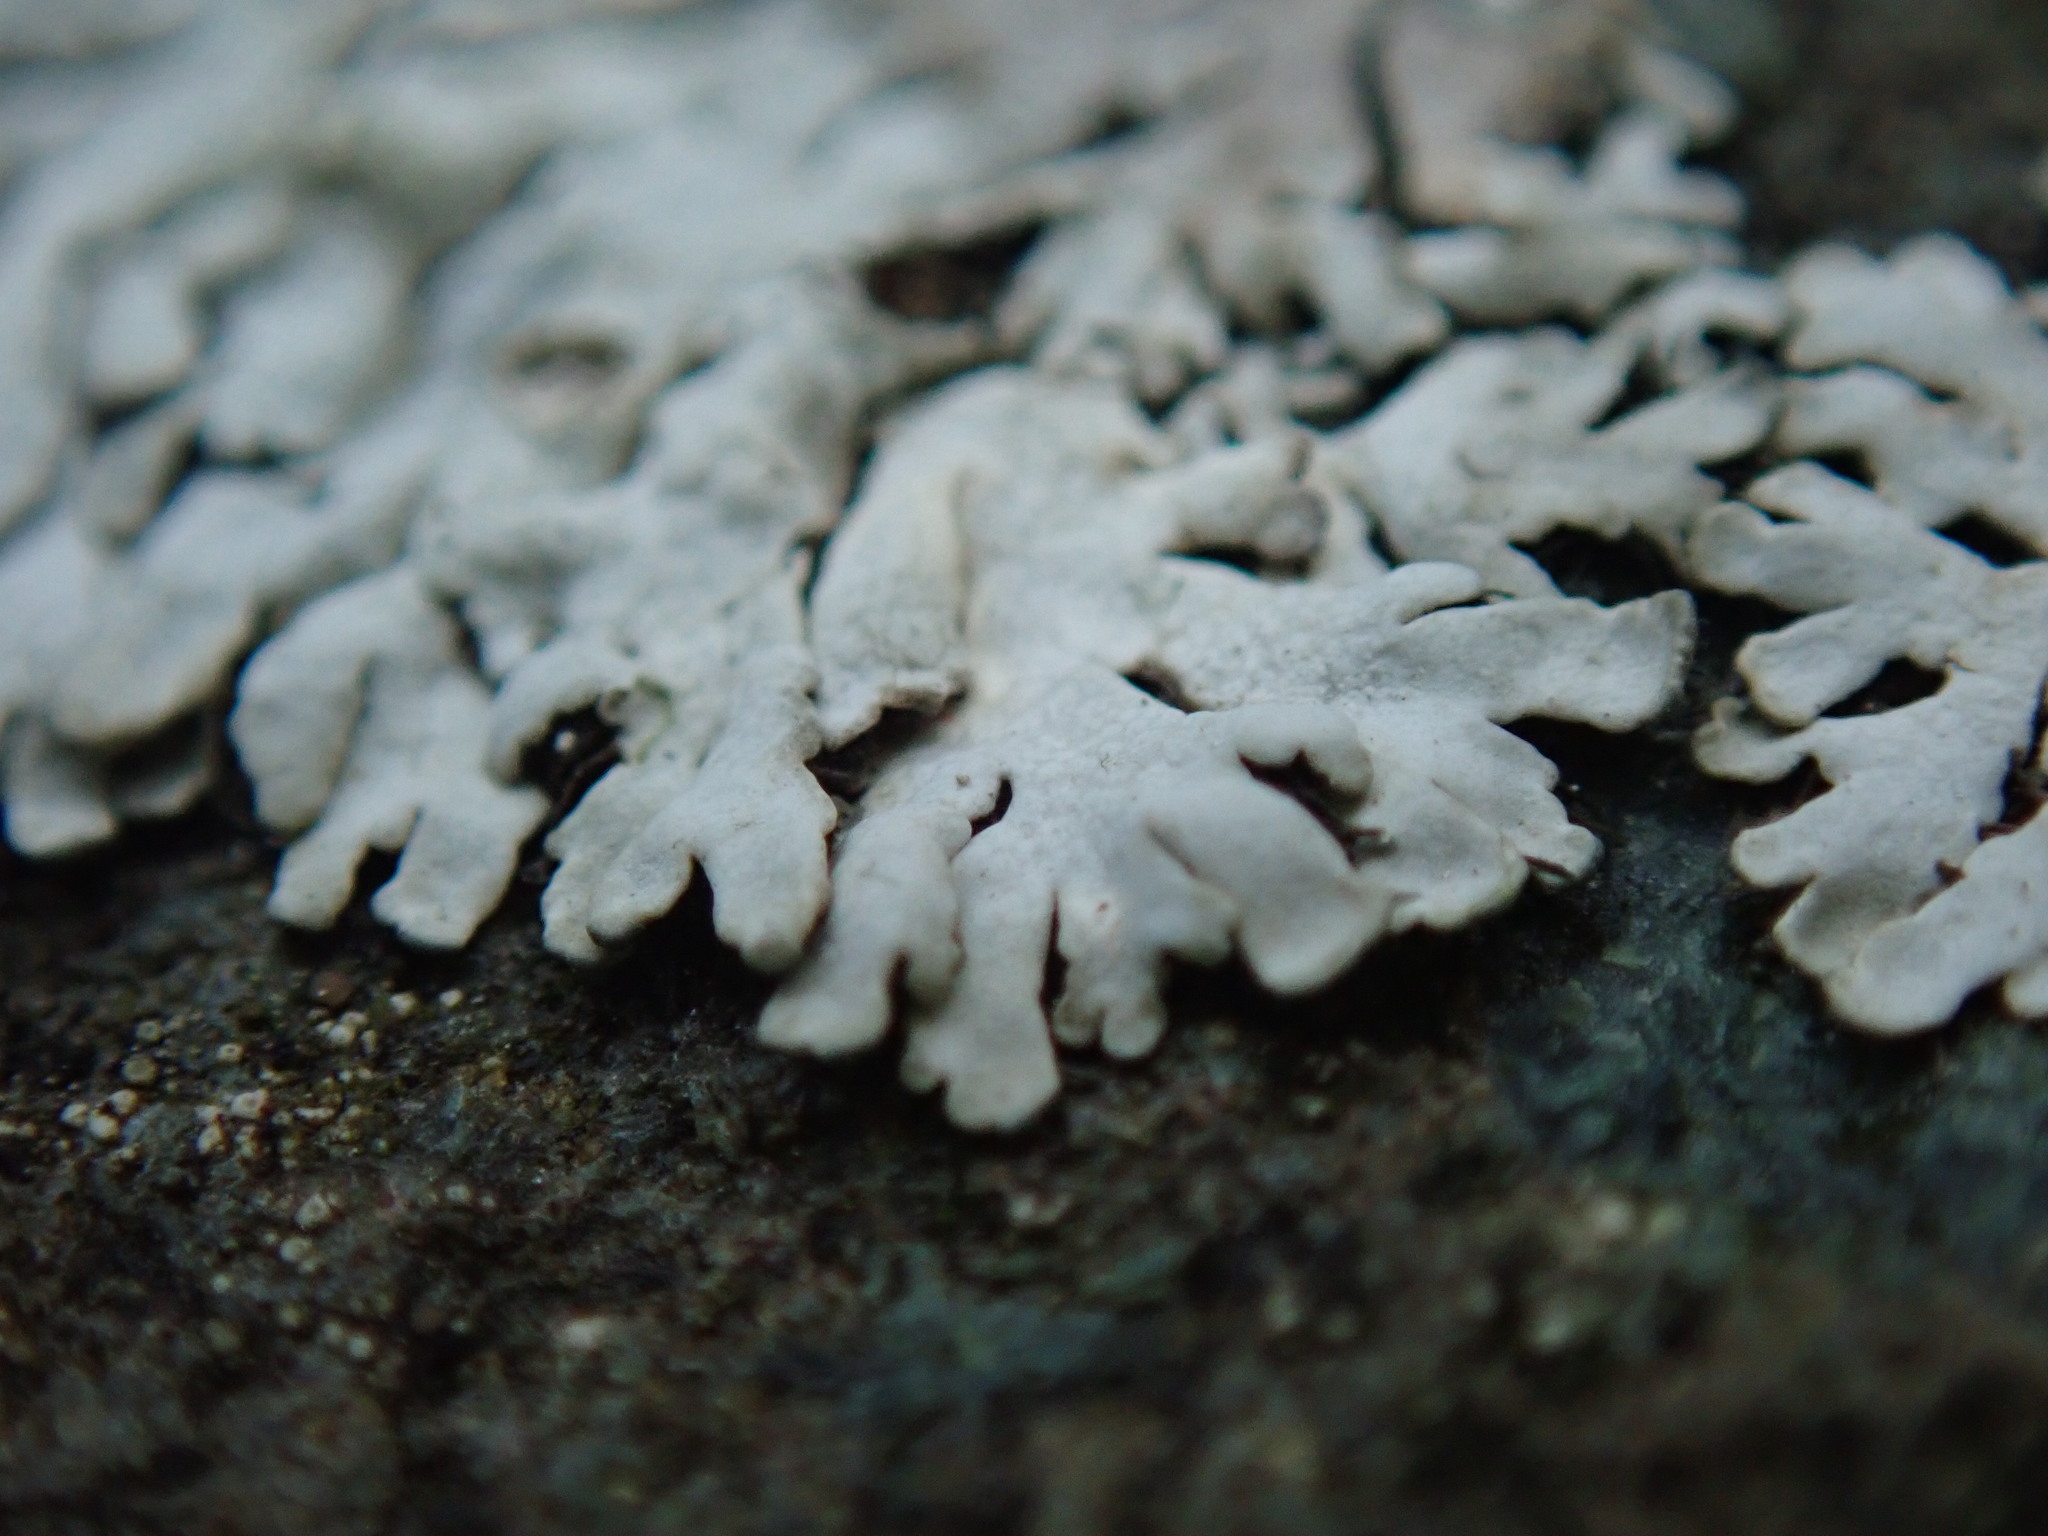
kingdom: Fungi
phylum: Ascomycota
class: Lecanoromycetes
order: Caliciales
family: Physciaceae
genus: Physcia
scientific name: Physcia caesia
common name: Blue-gray rosette lichen
